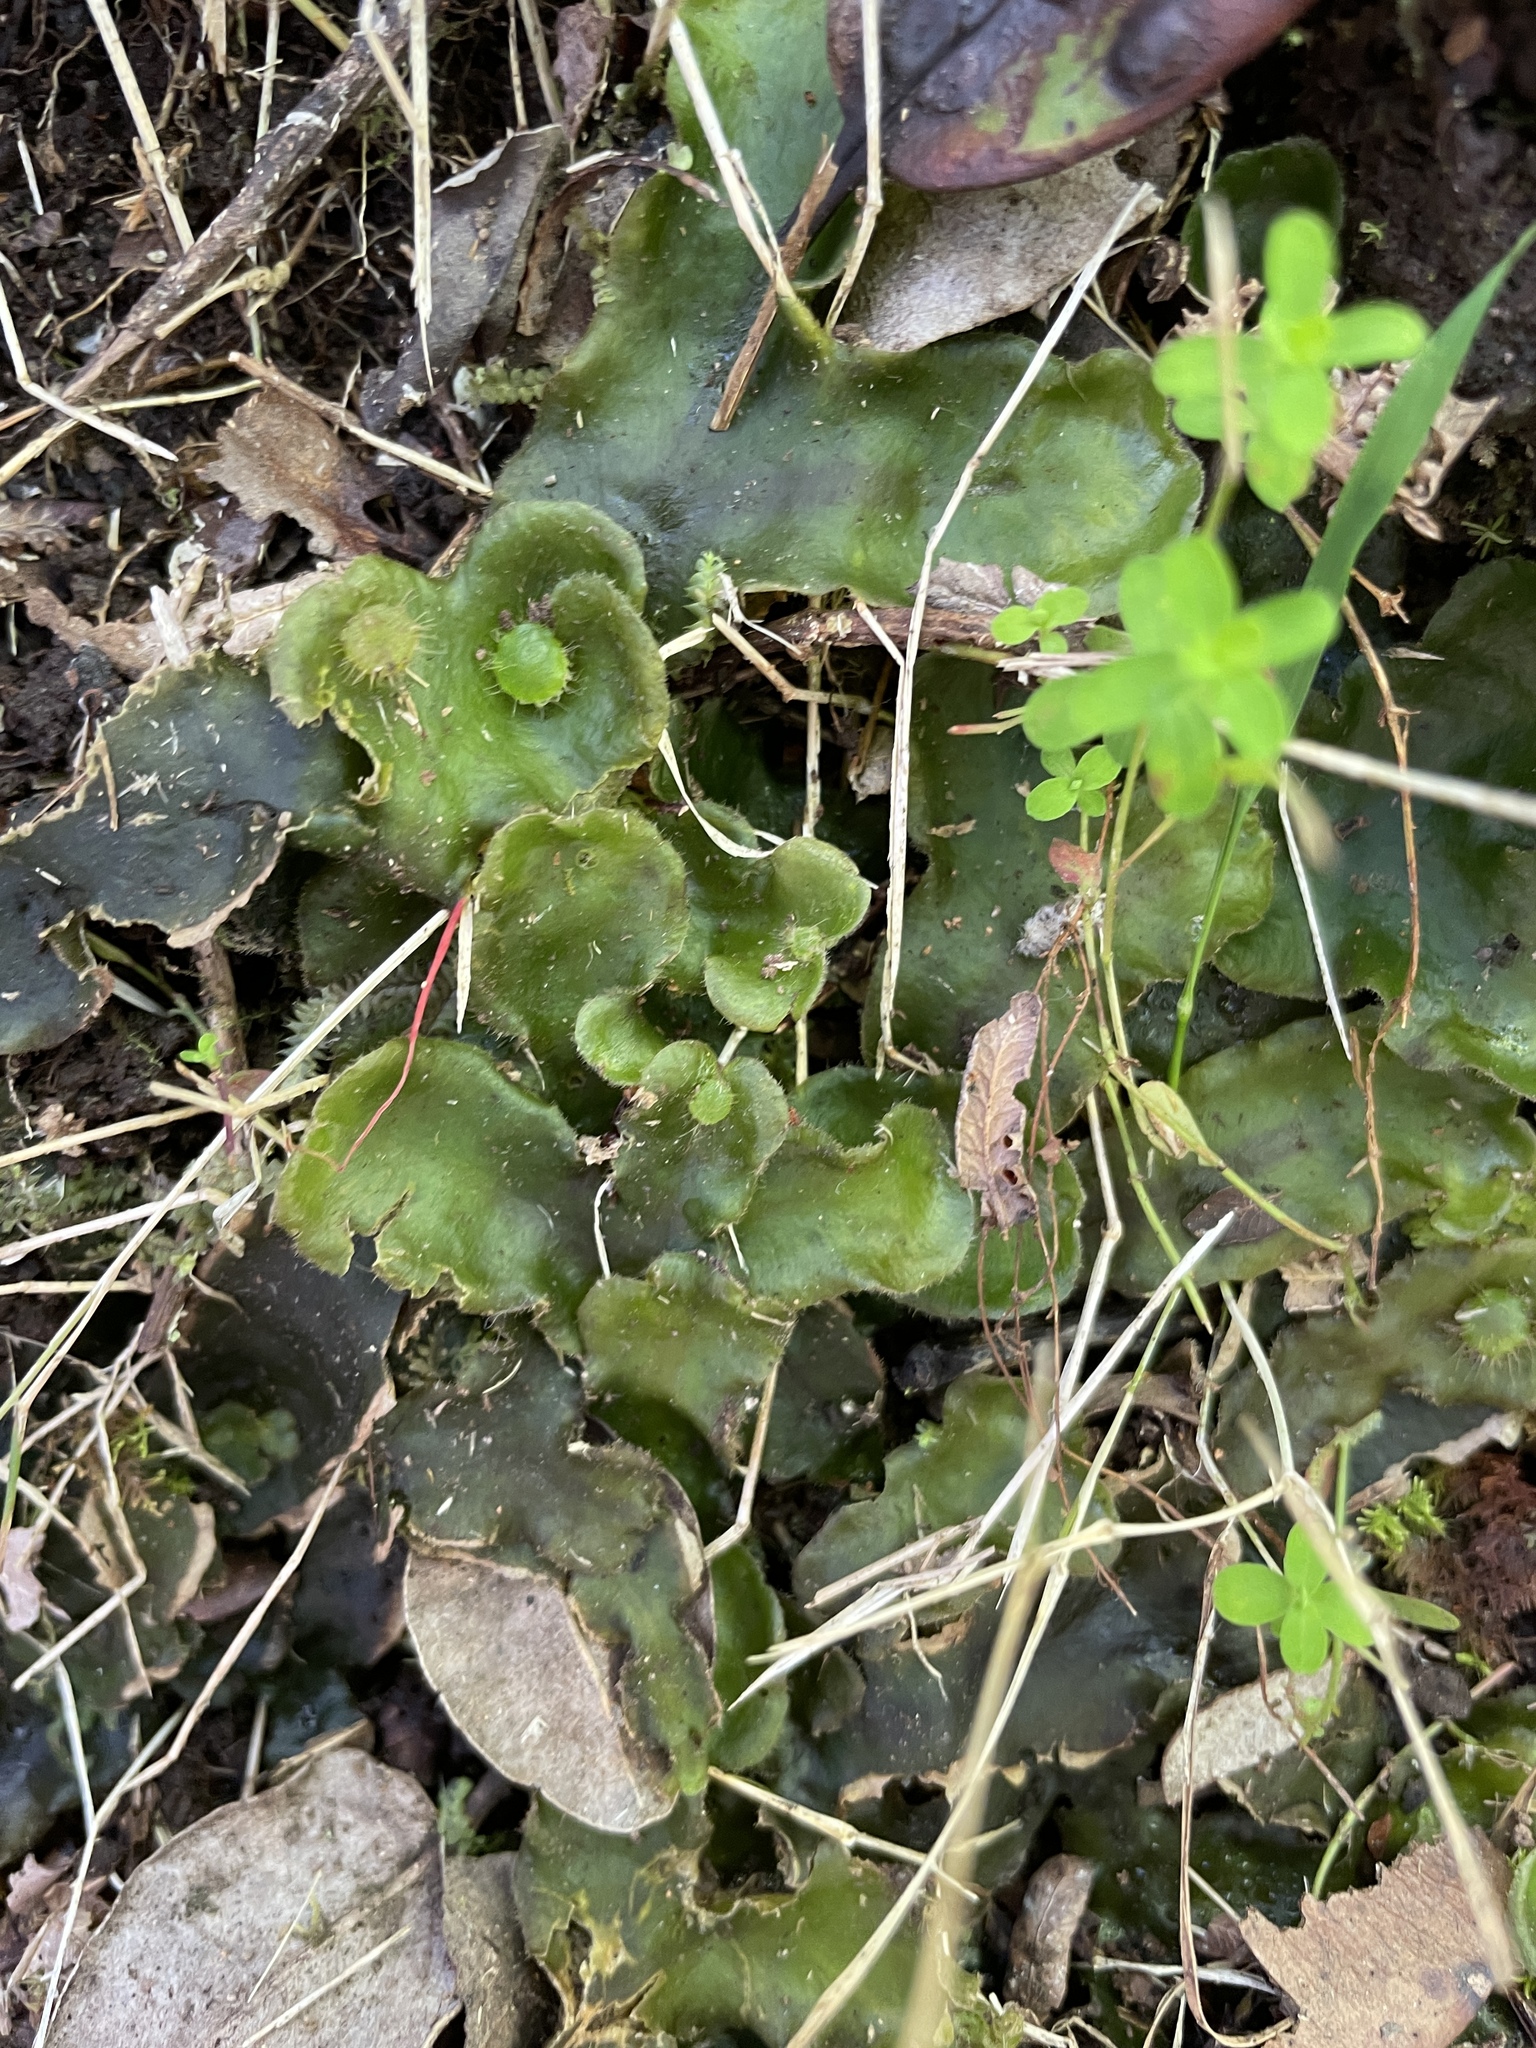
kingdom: Plantae
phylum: Marchantiophyta
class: Marchantiopsida
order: Marchantiales
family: Dumortieraceae
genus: Dumortiera
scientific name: Dumortiera hirsuta
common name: Dumortier's liverwort
